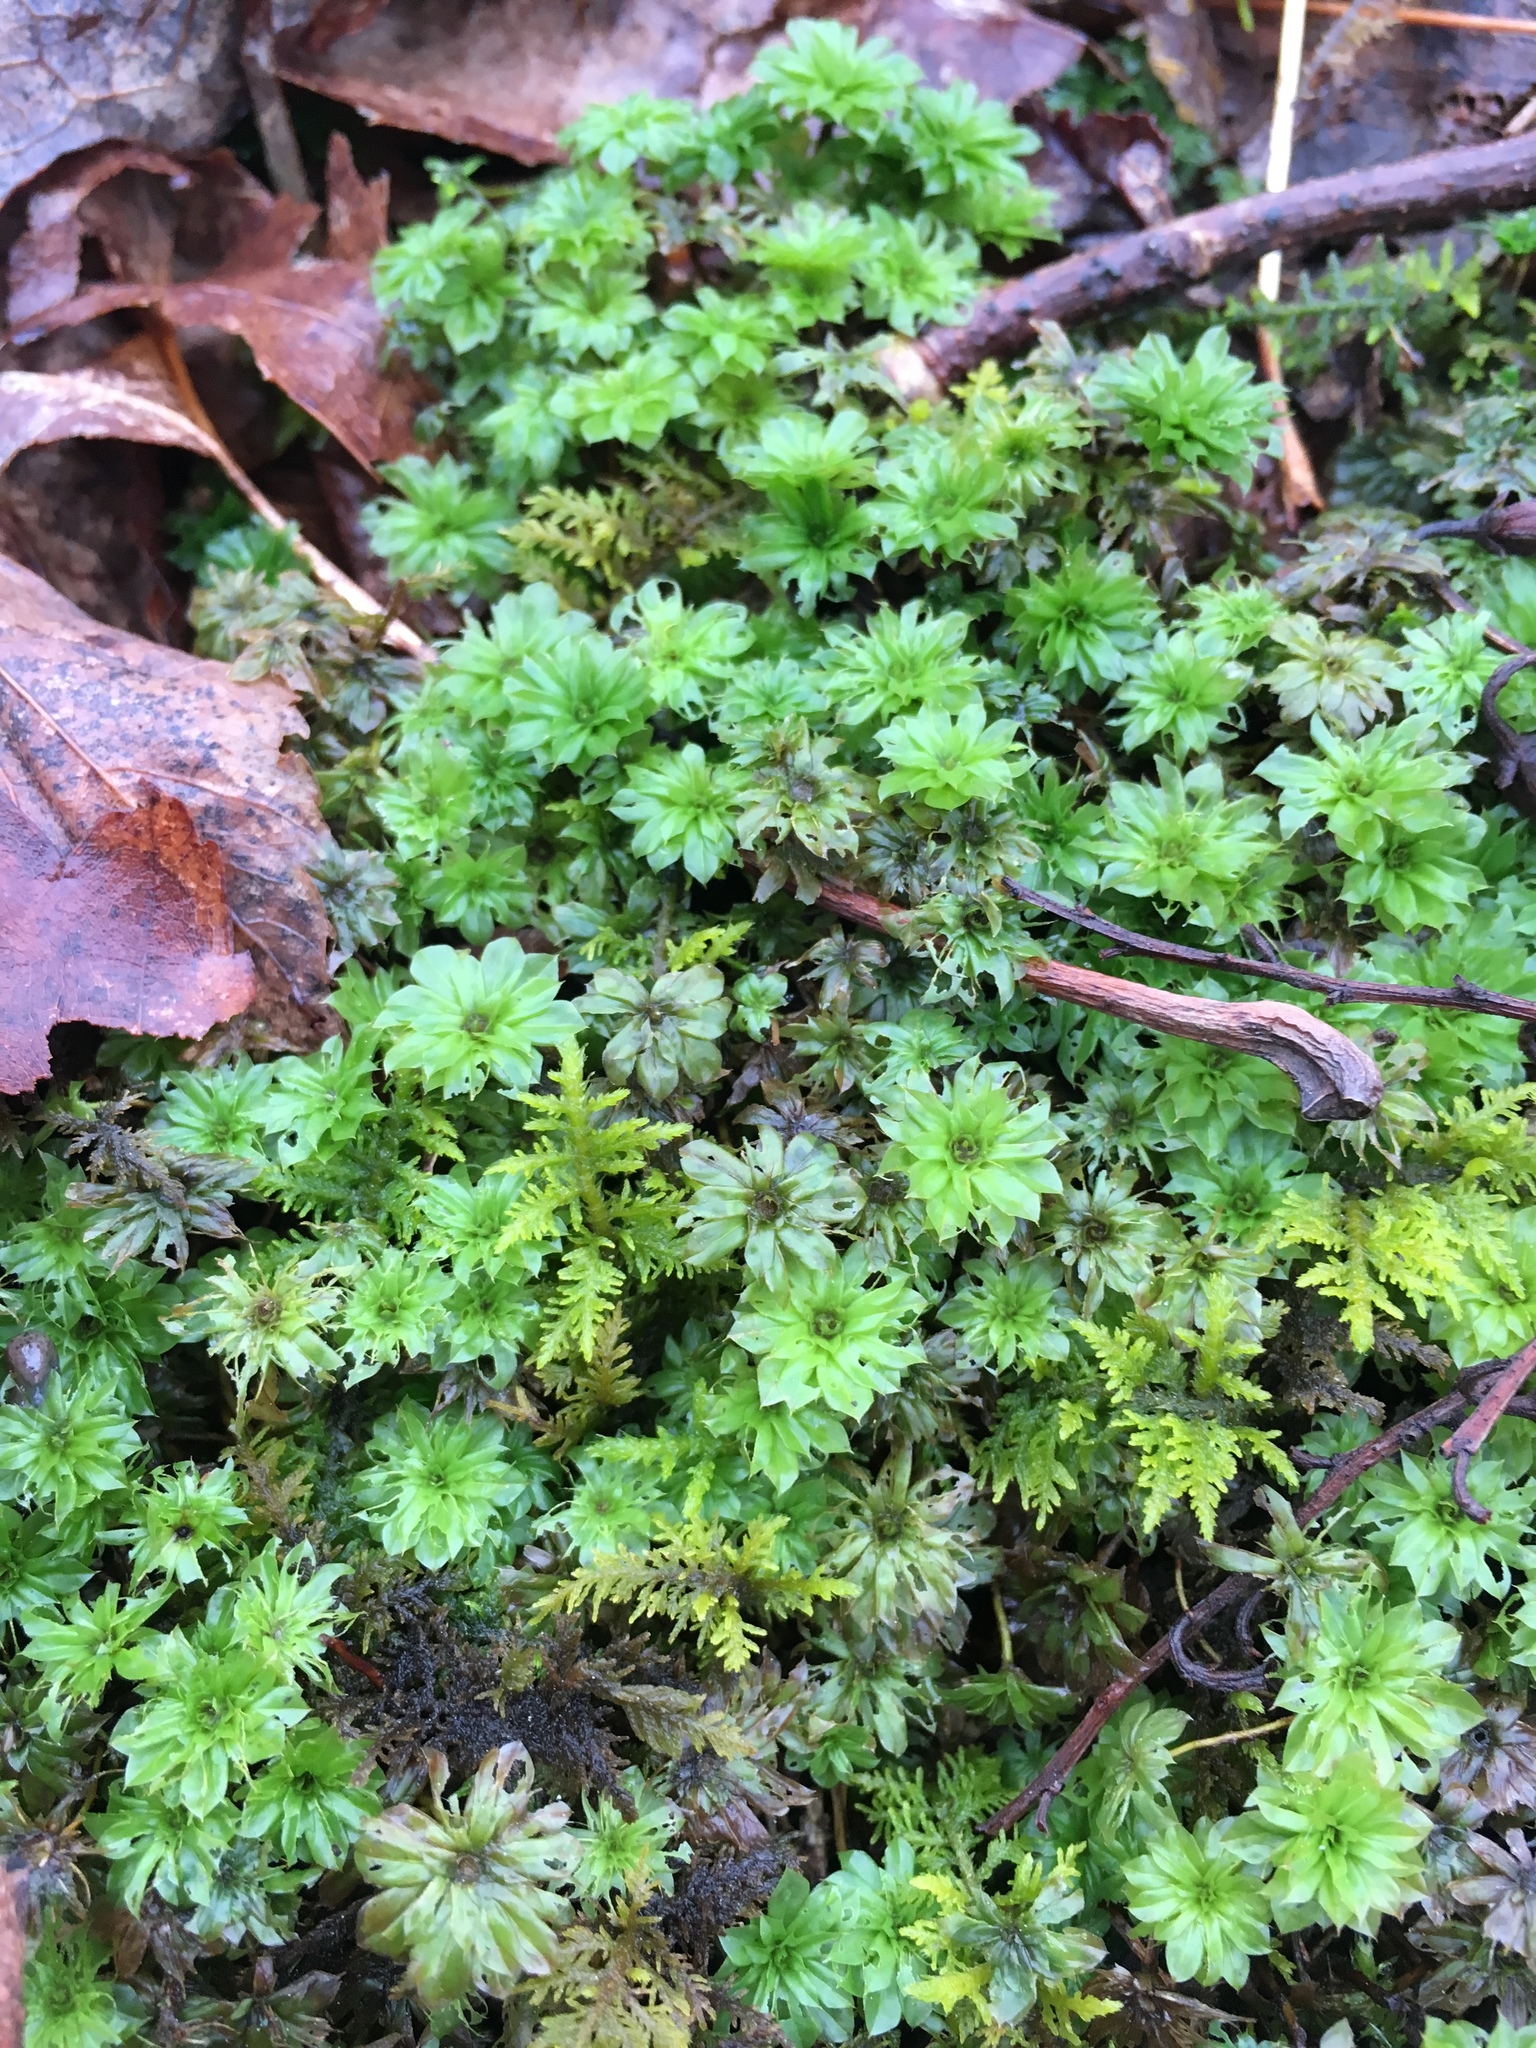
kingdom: Plantae
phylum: Bryophyta
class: Bryopsida
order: Bryales
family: Bryaceae
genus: Rhodobryum
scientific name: Rhodobryum ontariense
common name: Ontario rhodobryum moss
